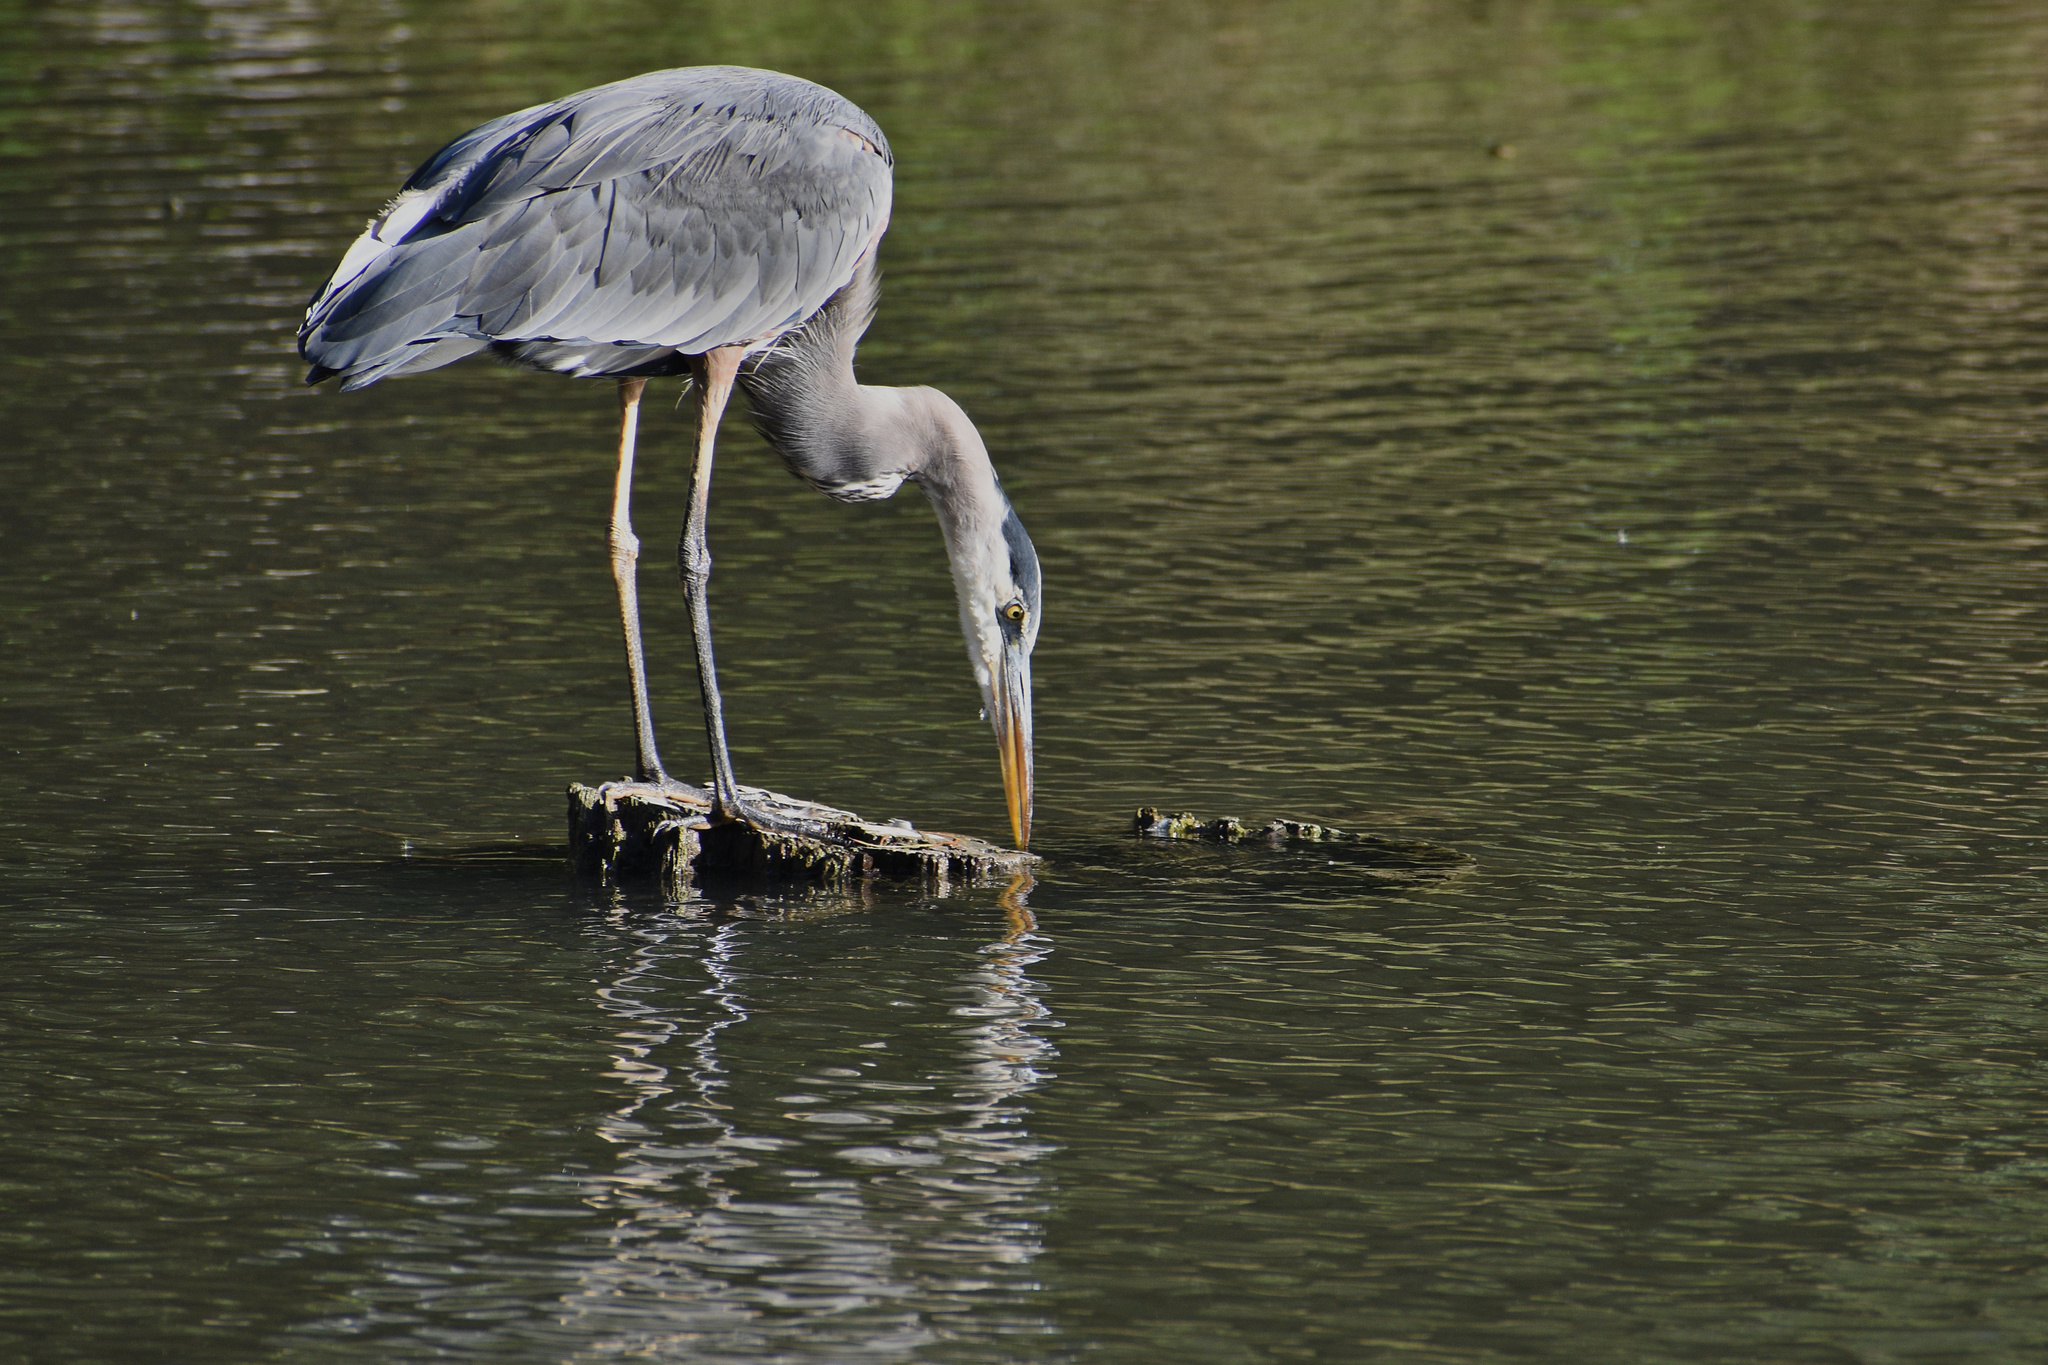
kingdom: Animalia
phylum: Chordata
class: Aves
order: Pelecaniformes
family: Ardeidae
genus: Ardea
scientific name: Ardea herodias
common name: Great blue heron
